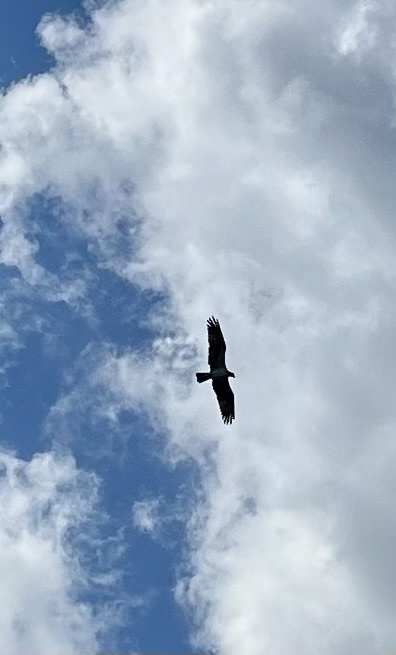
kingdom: Animalia
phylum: Chordata
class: Aves
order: Accipitriformes
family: Pandionidae
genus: Pandion
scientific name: Pandion haliaetus
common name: Osprey
